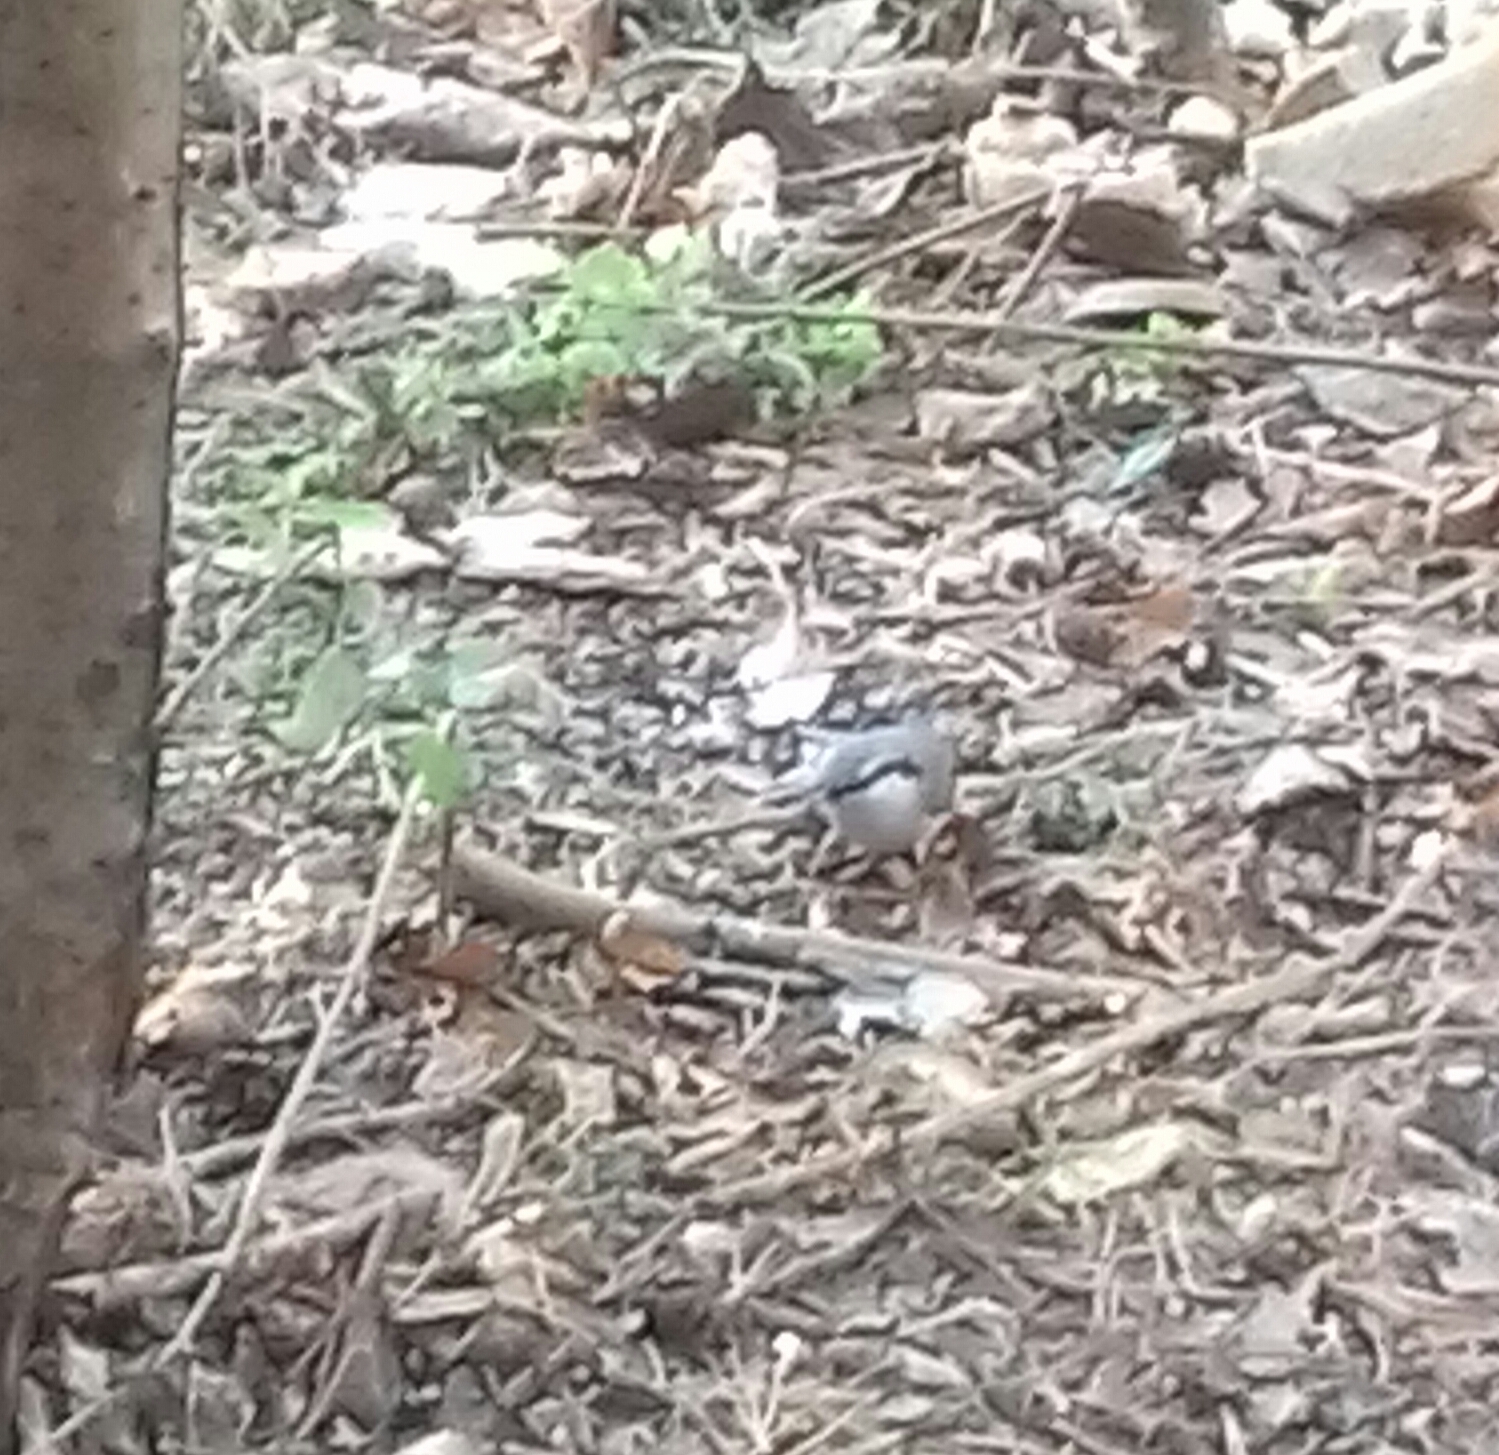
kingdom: Animalia
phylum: Chordata
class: Aves
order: Passeriformes
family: Sittidae
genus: Sitta
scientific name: Sitta europaea
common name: Eurasian nuthatch
